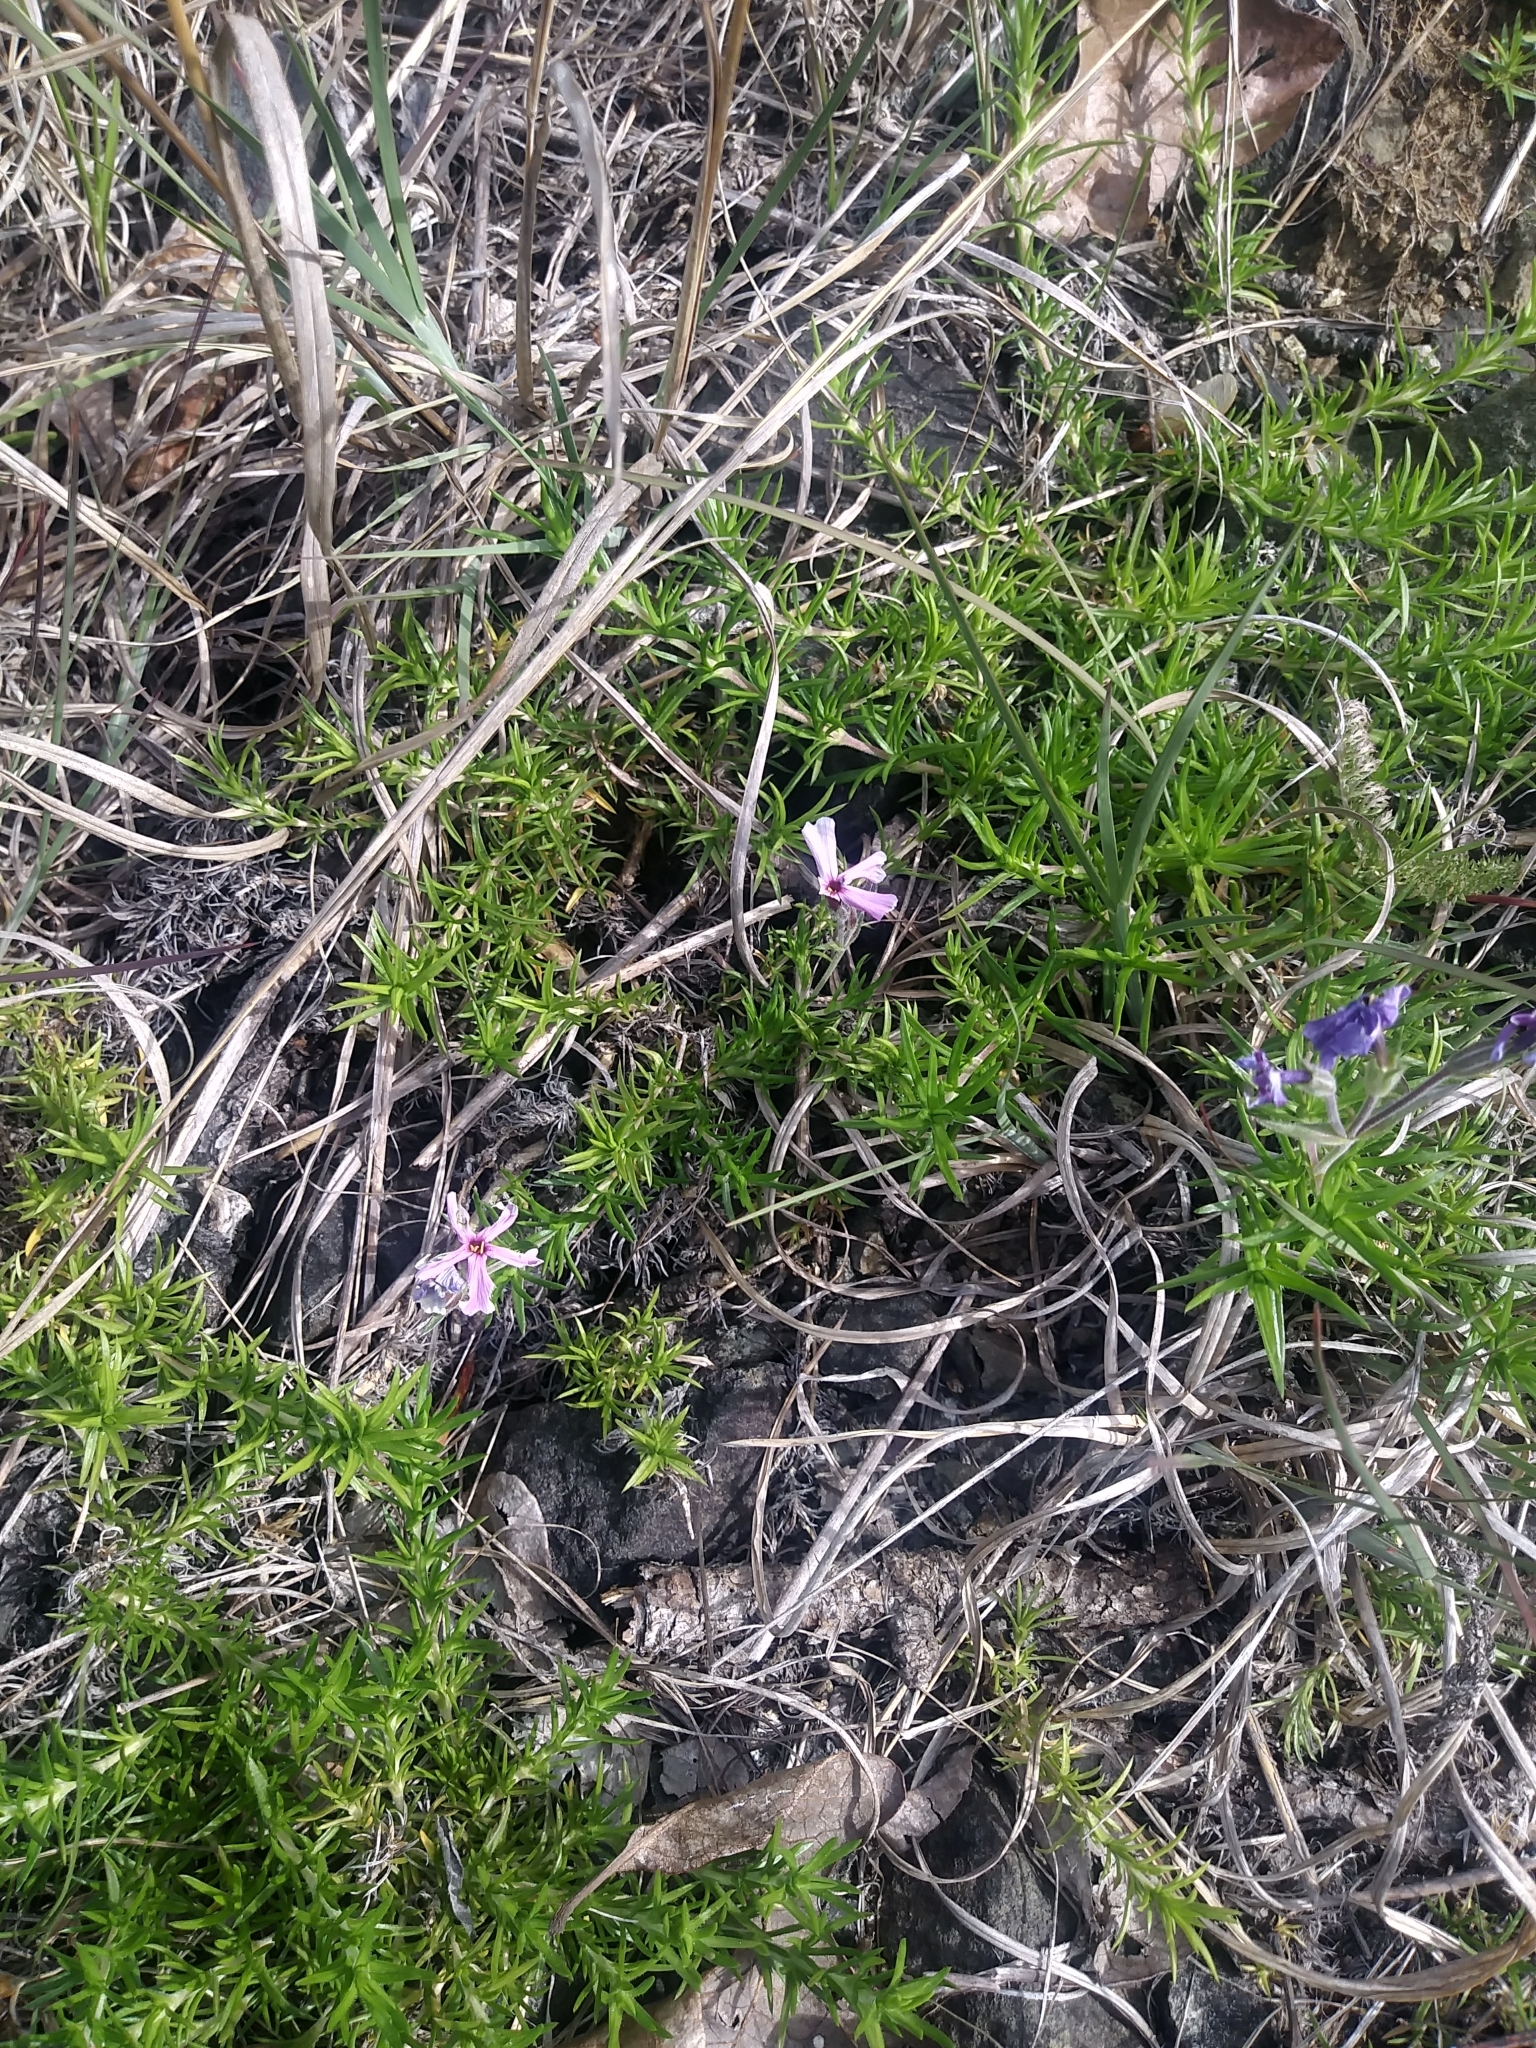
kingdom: Plantae
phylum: Tracheophyta
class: Magnoliopsida
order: Ericales
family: Polemoniaceae
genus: Phlox
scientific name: Phlox subulata
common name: Moss phlox
